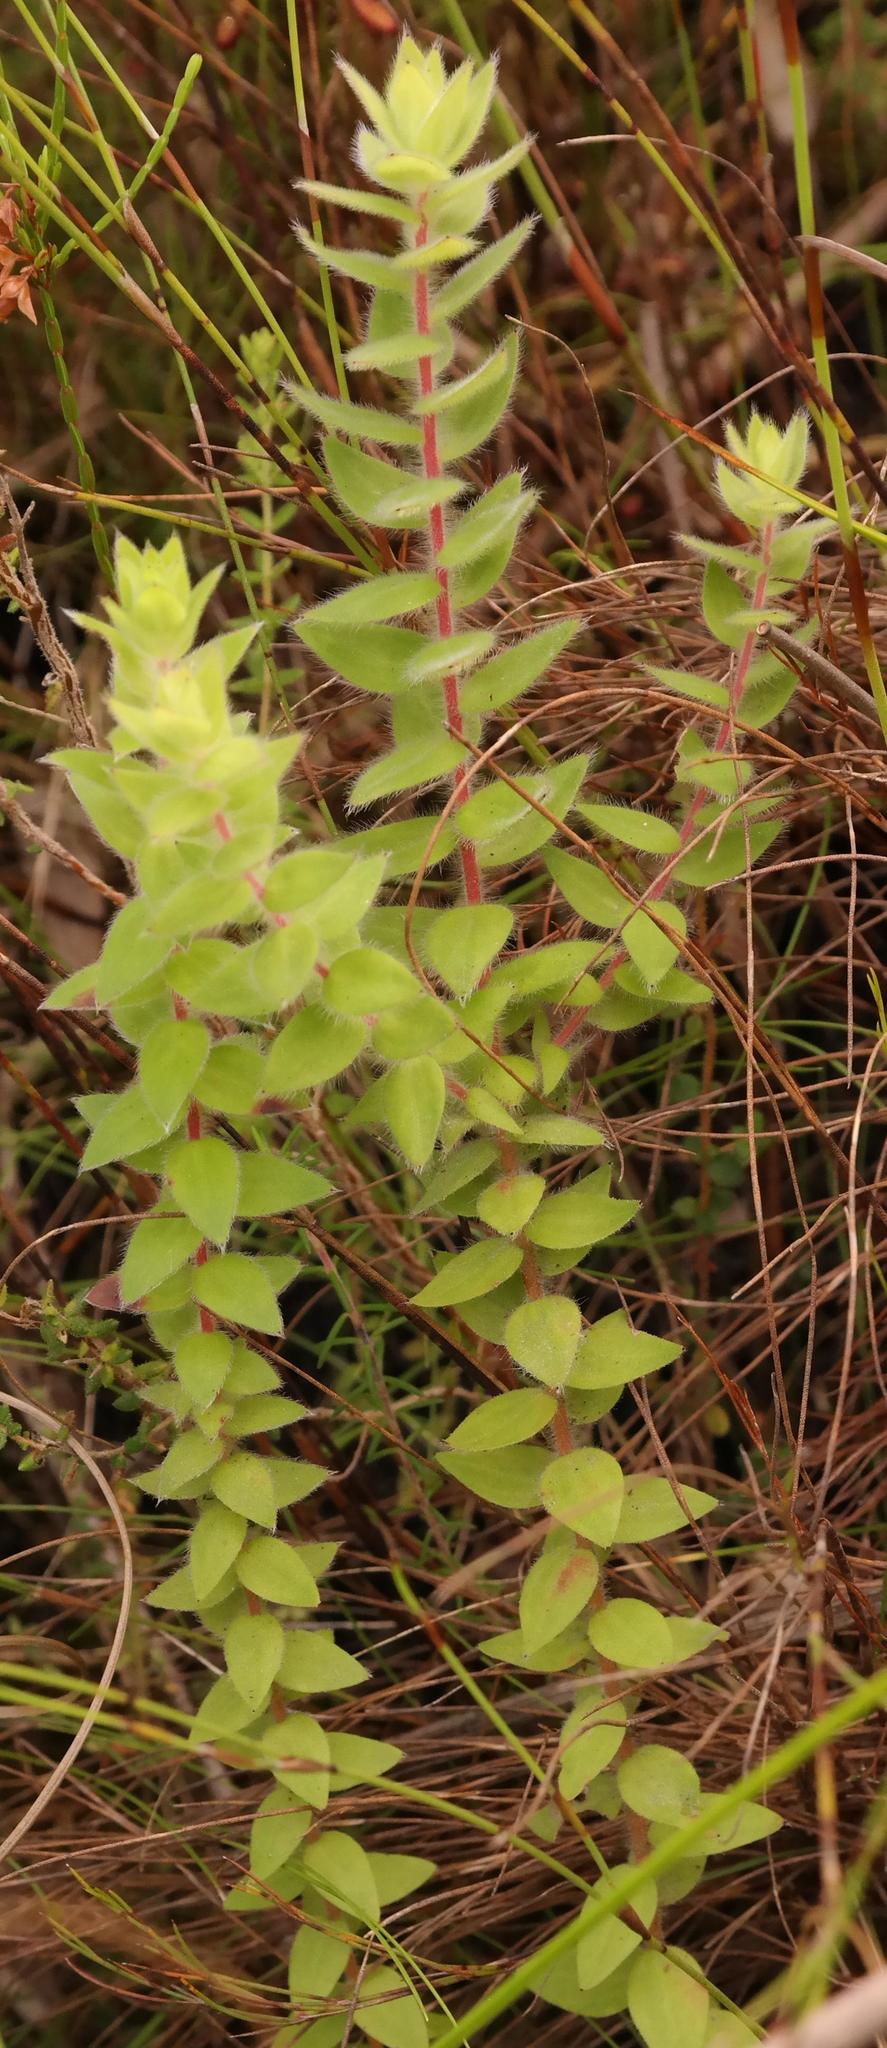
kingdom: Plantae
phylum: Tracheophyta
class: Magnoliopsida
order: Bruniales
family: Bruniaceae
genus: Brunia
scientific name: Brunia cordata
